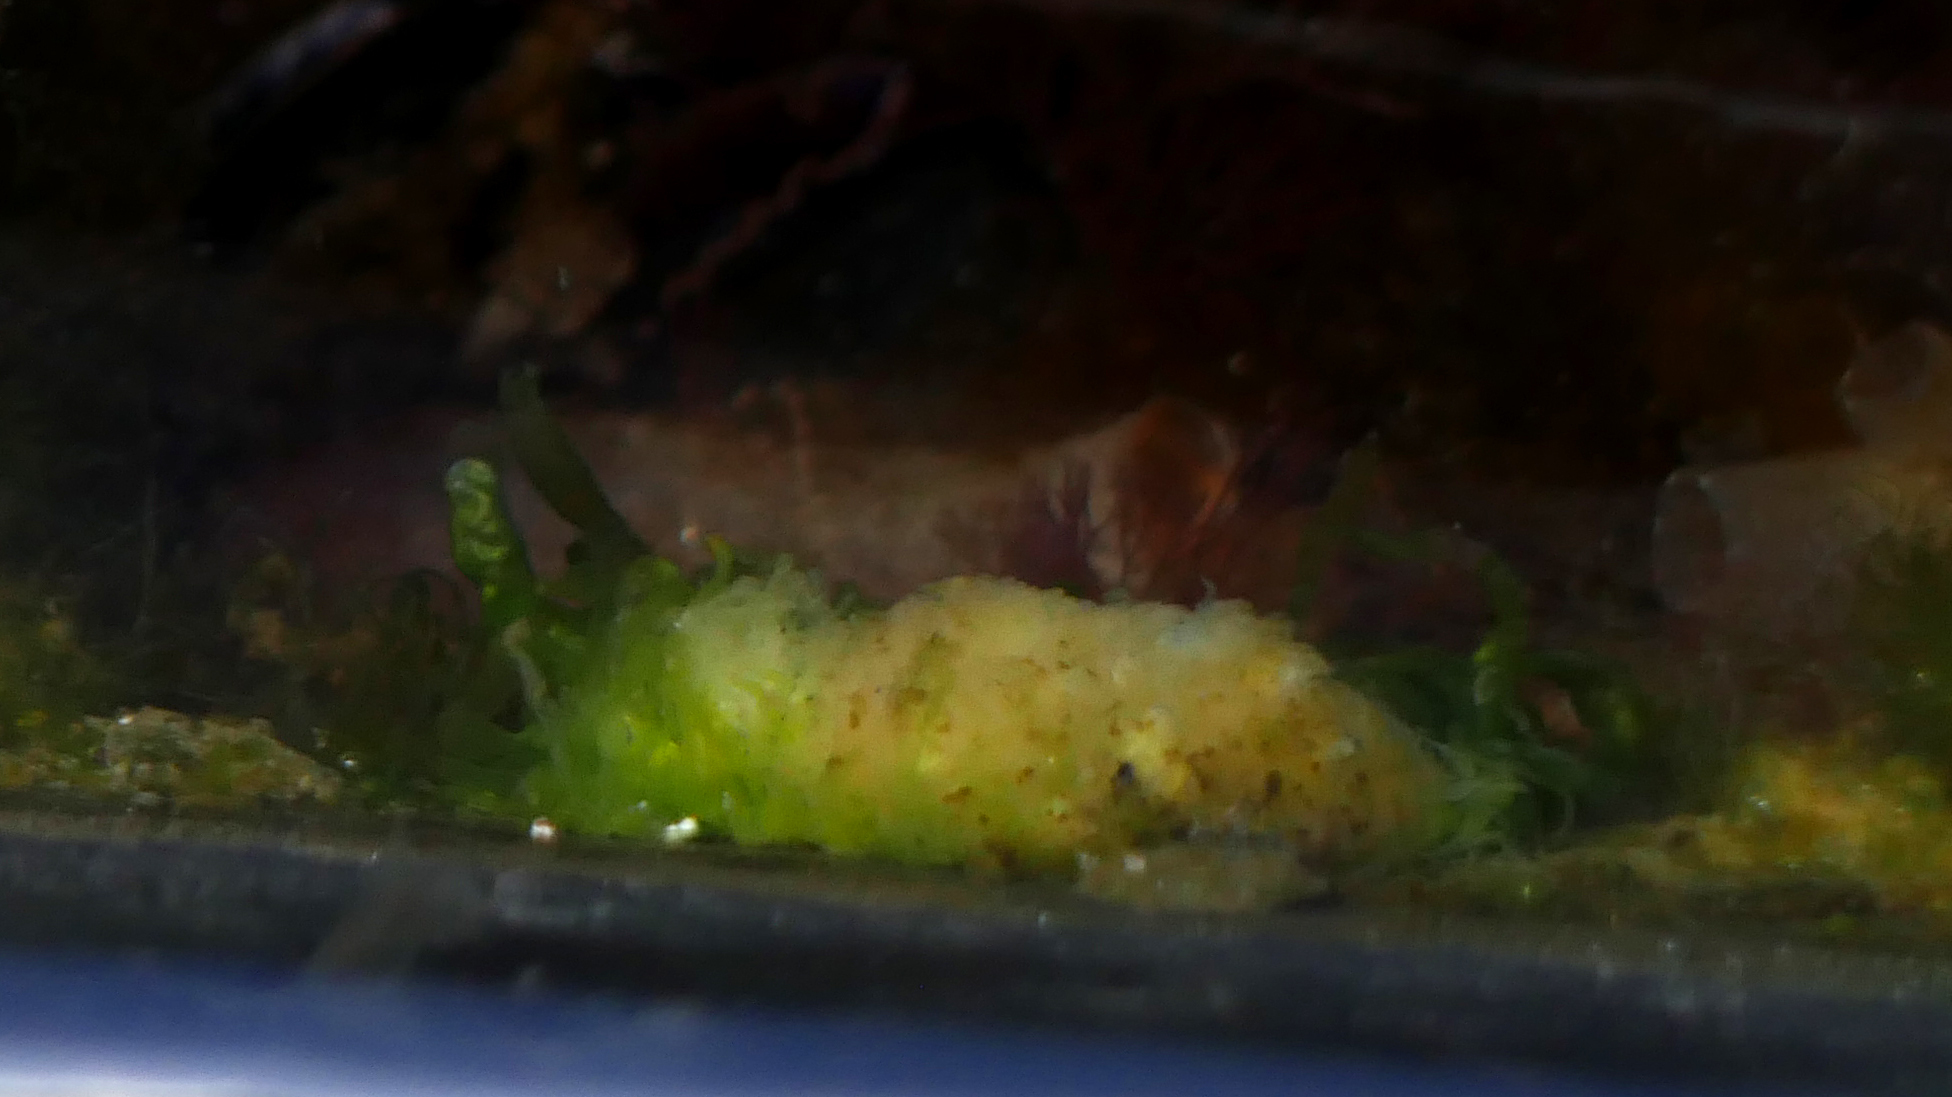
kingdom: Animalia
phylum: Porifera
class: Demospongiae
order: Suberitida
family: Halichondriidae
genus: Halichondria
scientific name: Halichondria panicea
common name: Breadcrumb sponge
